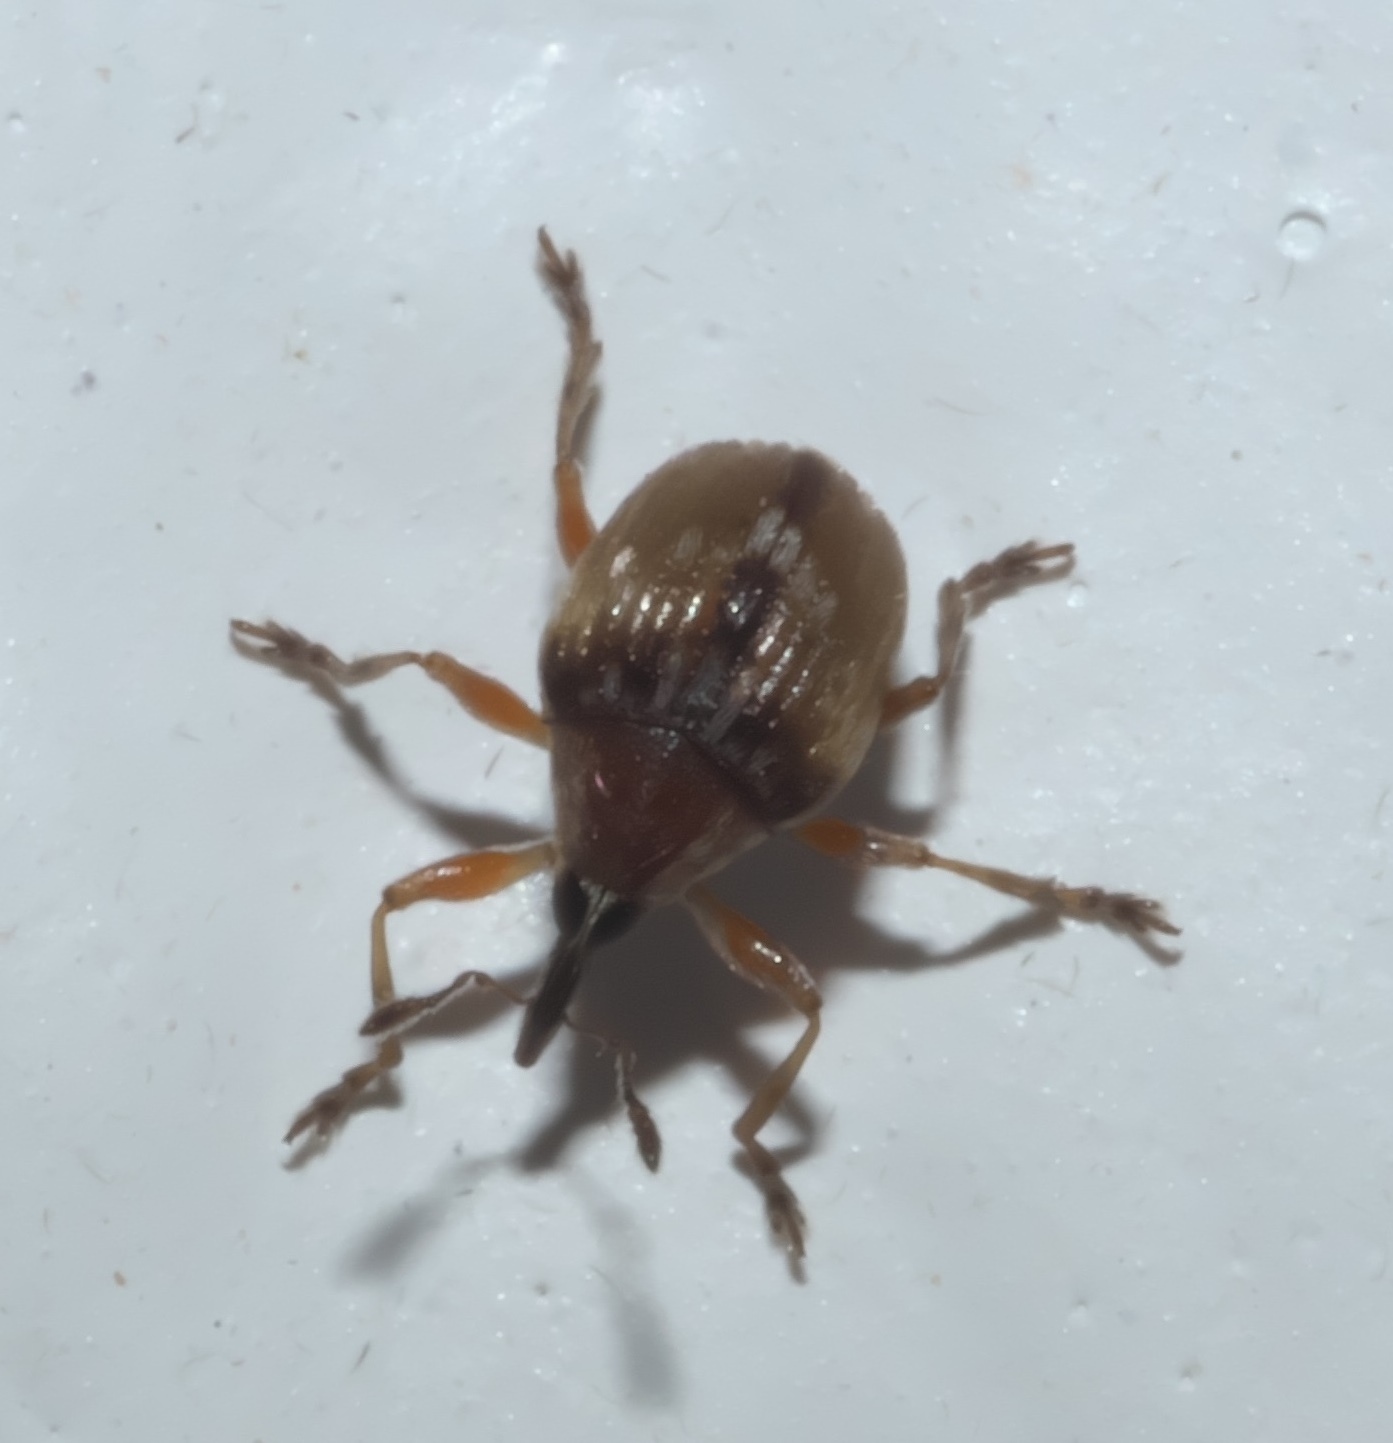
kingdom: Animalia
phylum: Arthropoda
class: Insecta
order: Coleoptera
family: Brentidae
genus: Nanodactylus
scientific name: Nanodactylus
